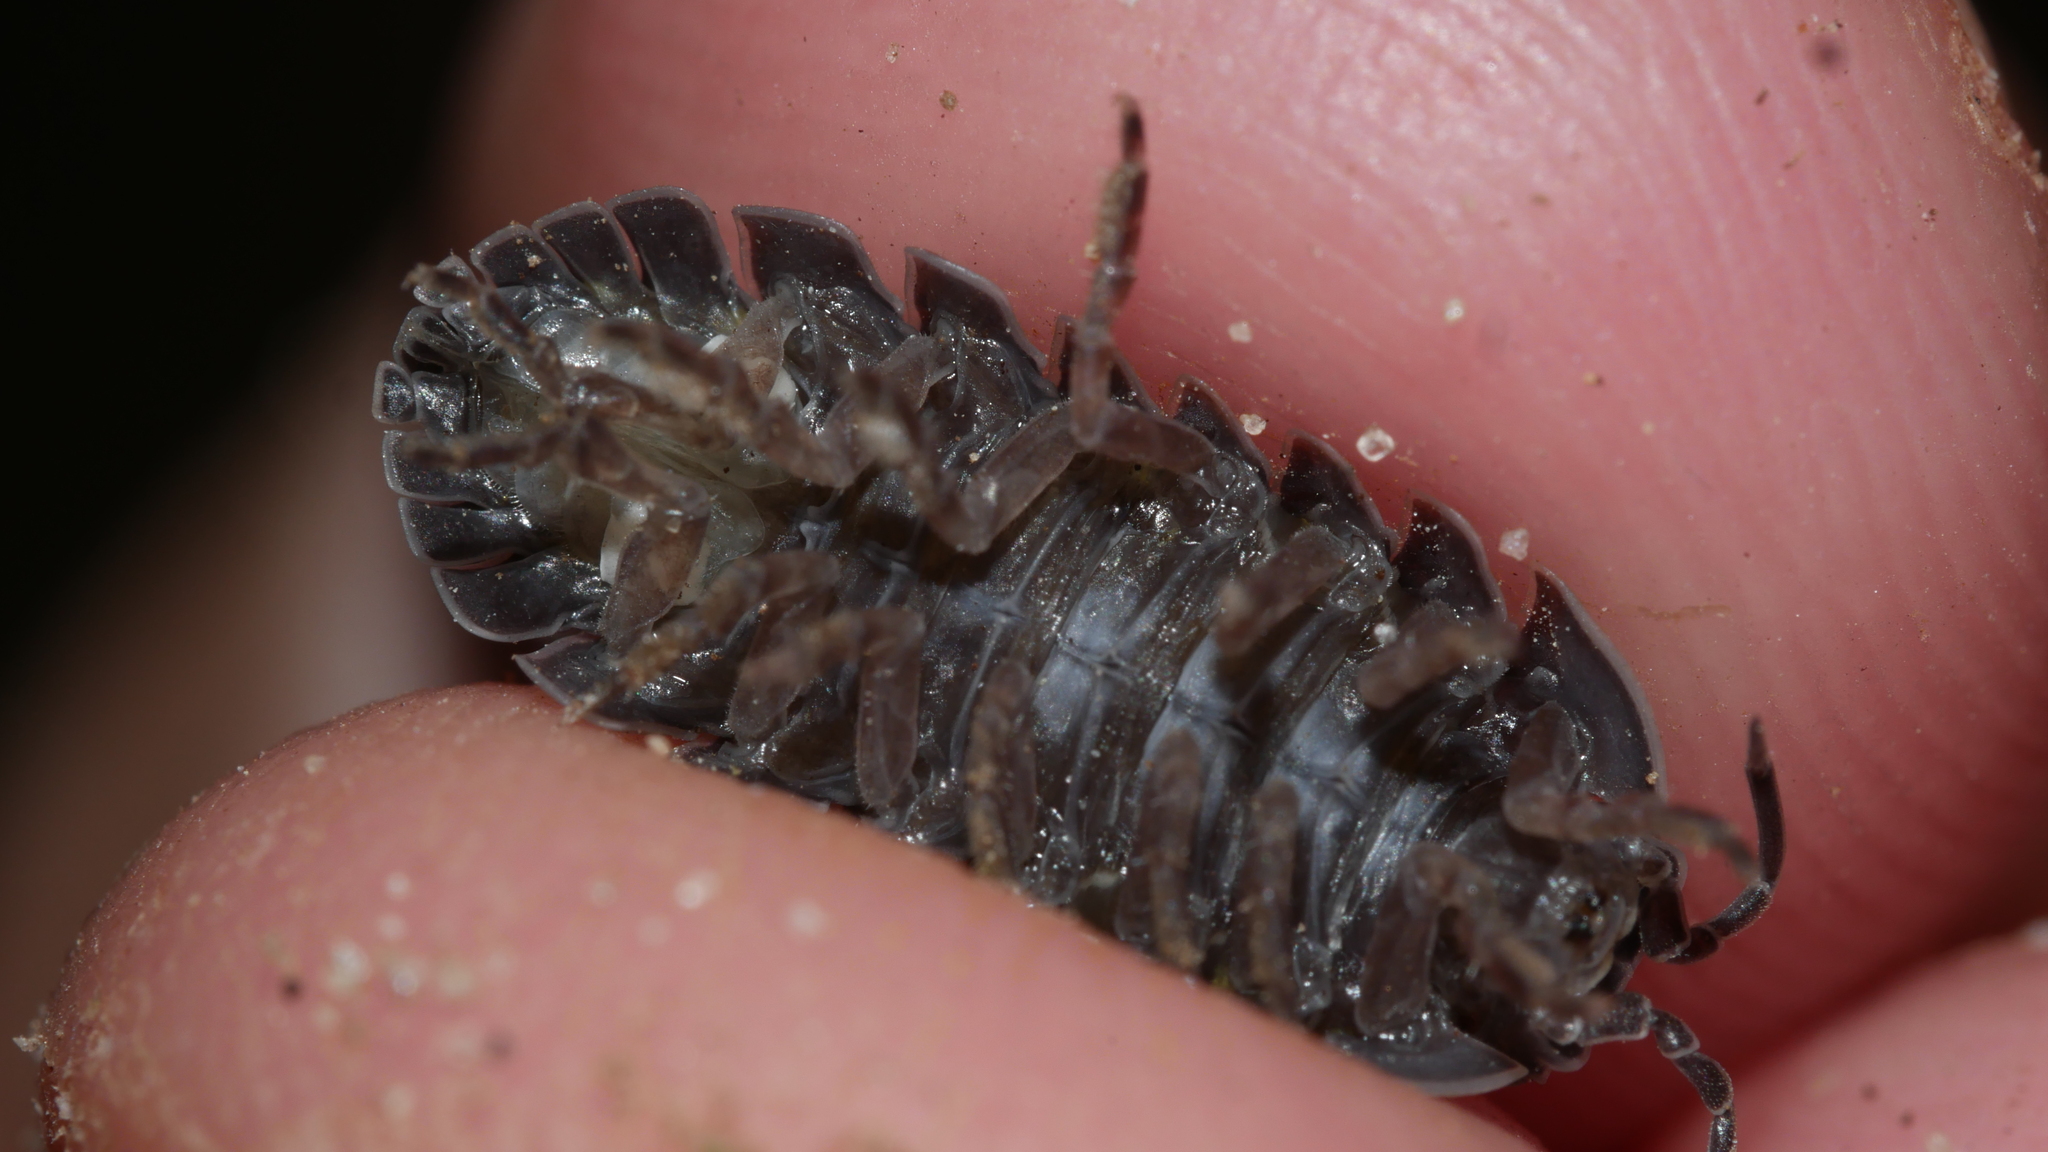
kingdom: Animalia
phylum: Arthropoda
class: Malacostraca
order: Isopoda
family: Armadillidiidae
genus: Armadillidium
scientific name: Armadillidium vulgare
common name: Common pill woodlouse
